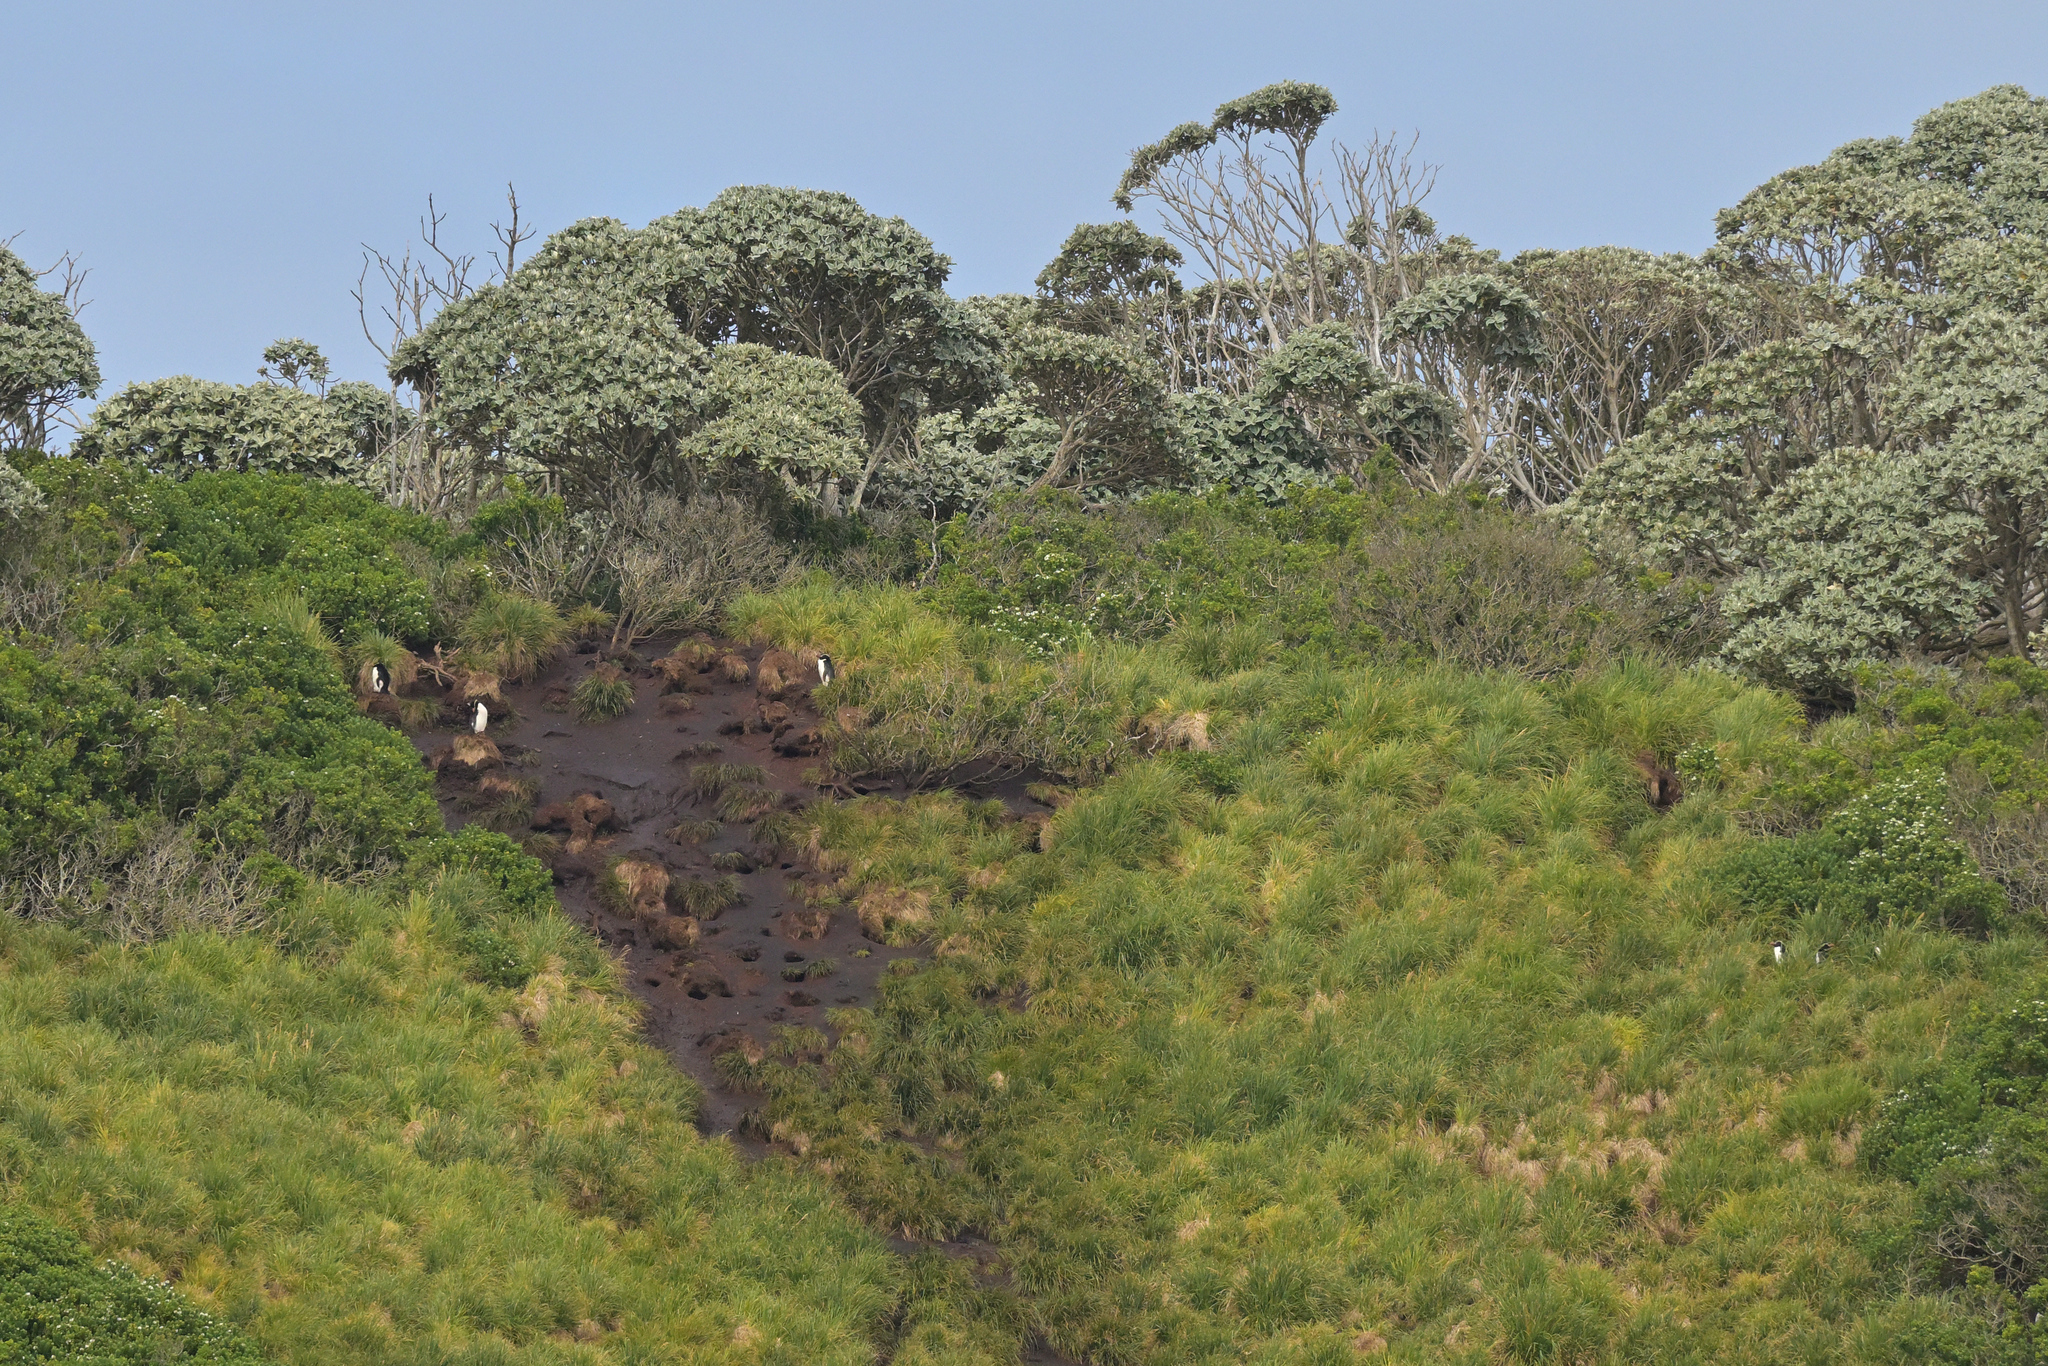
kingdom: Animalia
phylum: Chordata
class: Aves
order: Sphenisciformes
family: Spheniscidae
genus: Eudyptes
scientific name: Eudyptes robustus
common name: Snares penguin
